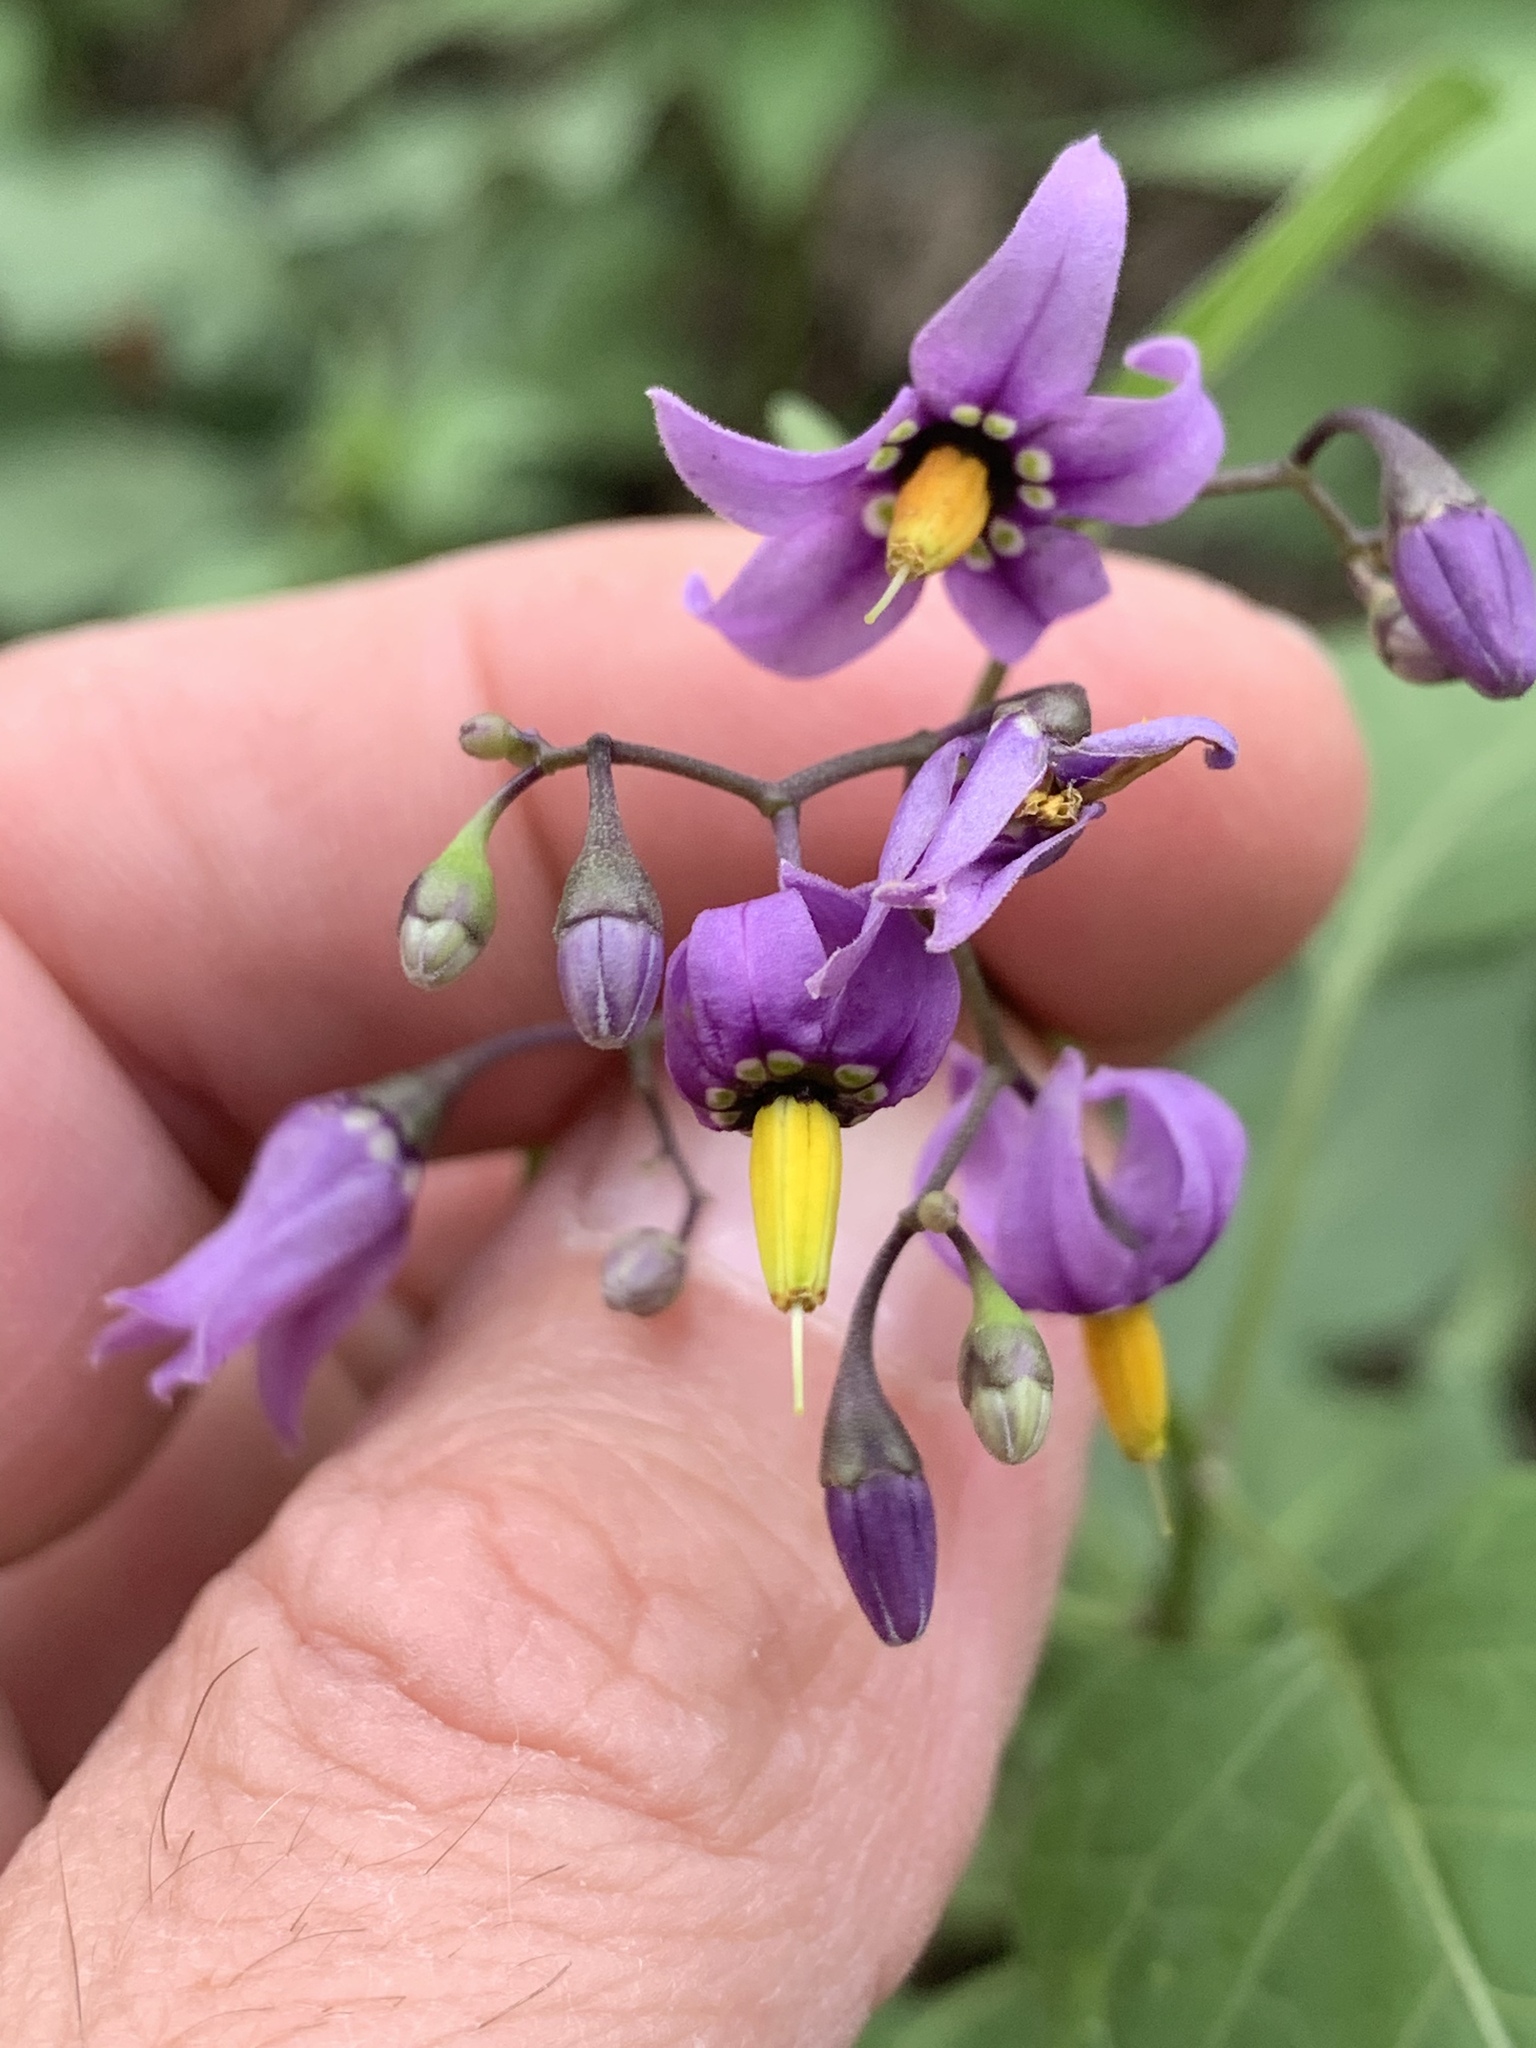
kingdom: Plantae
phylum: Tracheophyta
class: Magnoliopsida
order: Solanales
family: Solanaceae
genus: Solanum
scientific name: Solanum dulcamara
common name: Climbing nightshade
